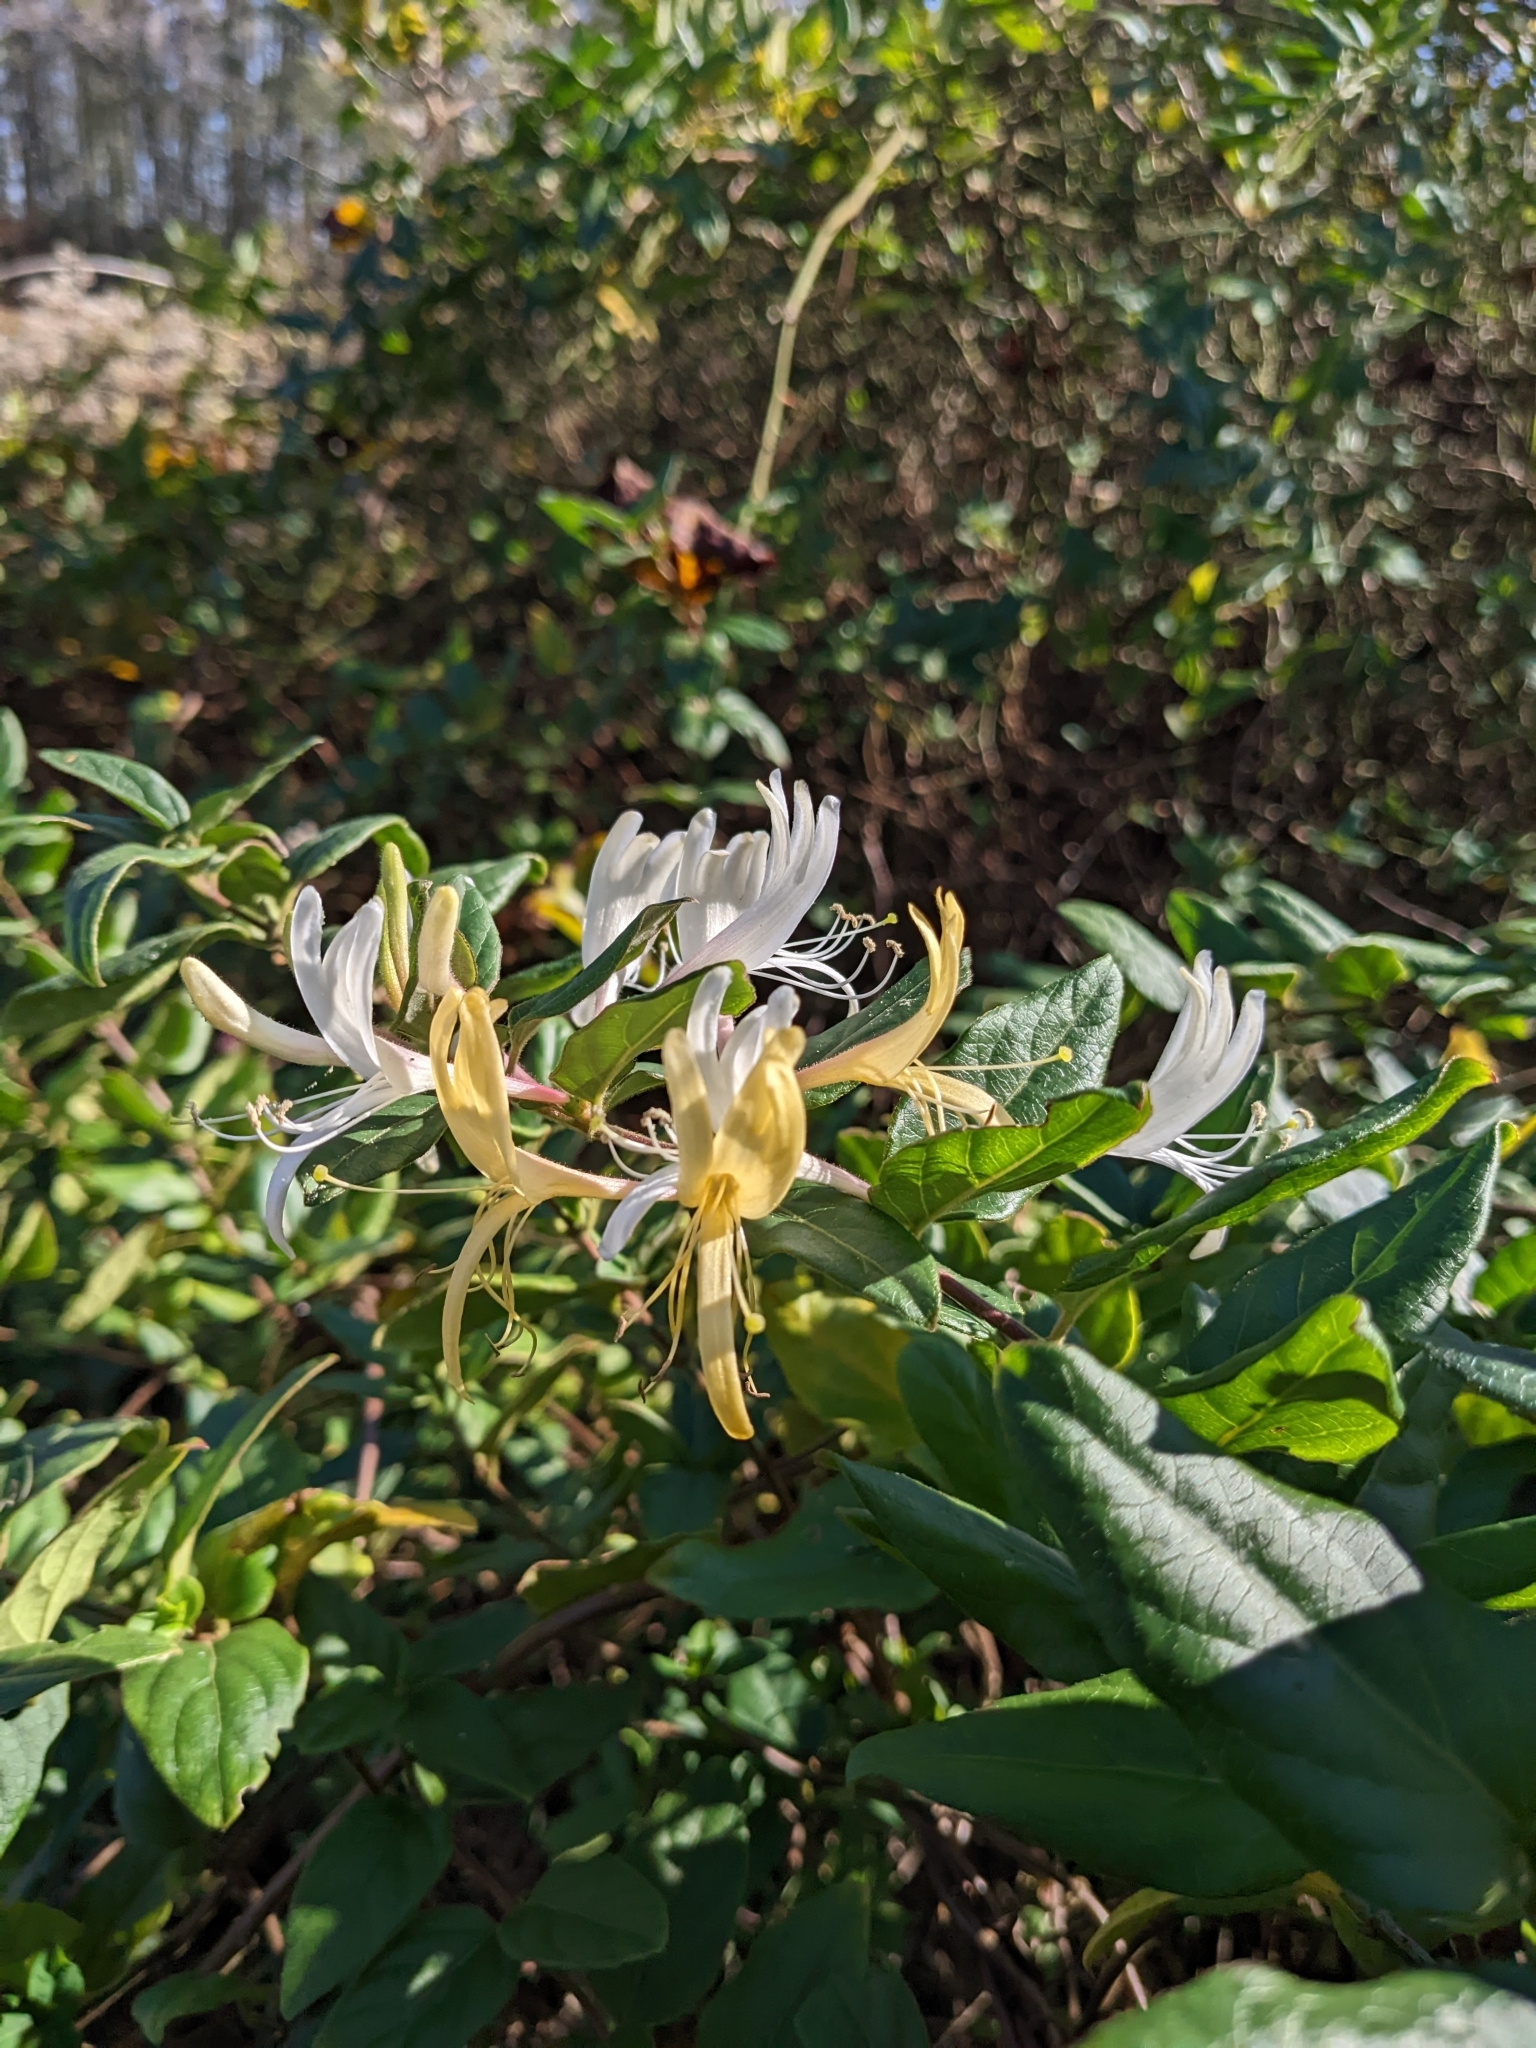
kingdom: Plantae
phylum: Tracheophyta
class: Magnoliopsida
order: Dipsacales
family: Caprifoliaceae
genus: Lonicera
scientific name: Lonicera japonica
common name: Japanese honeysuckle
